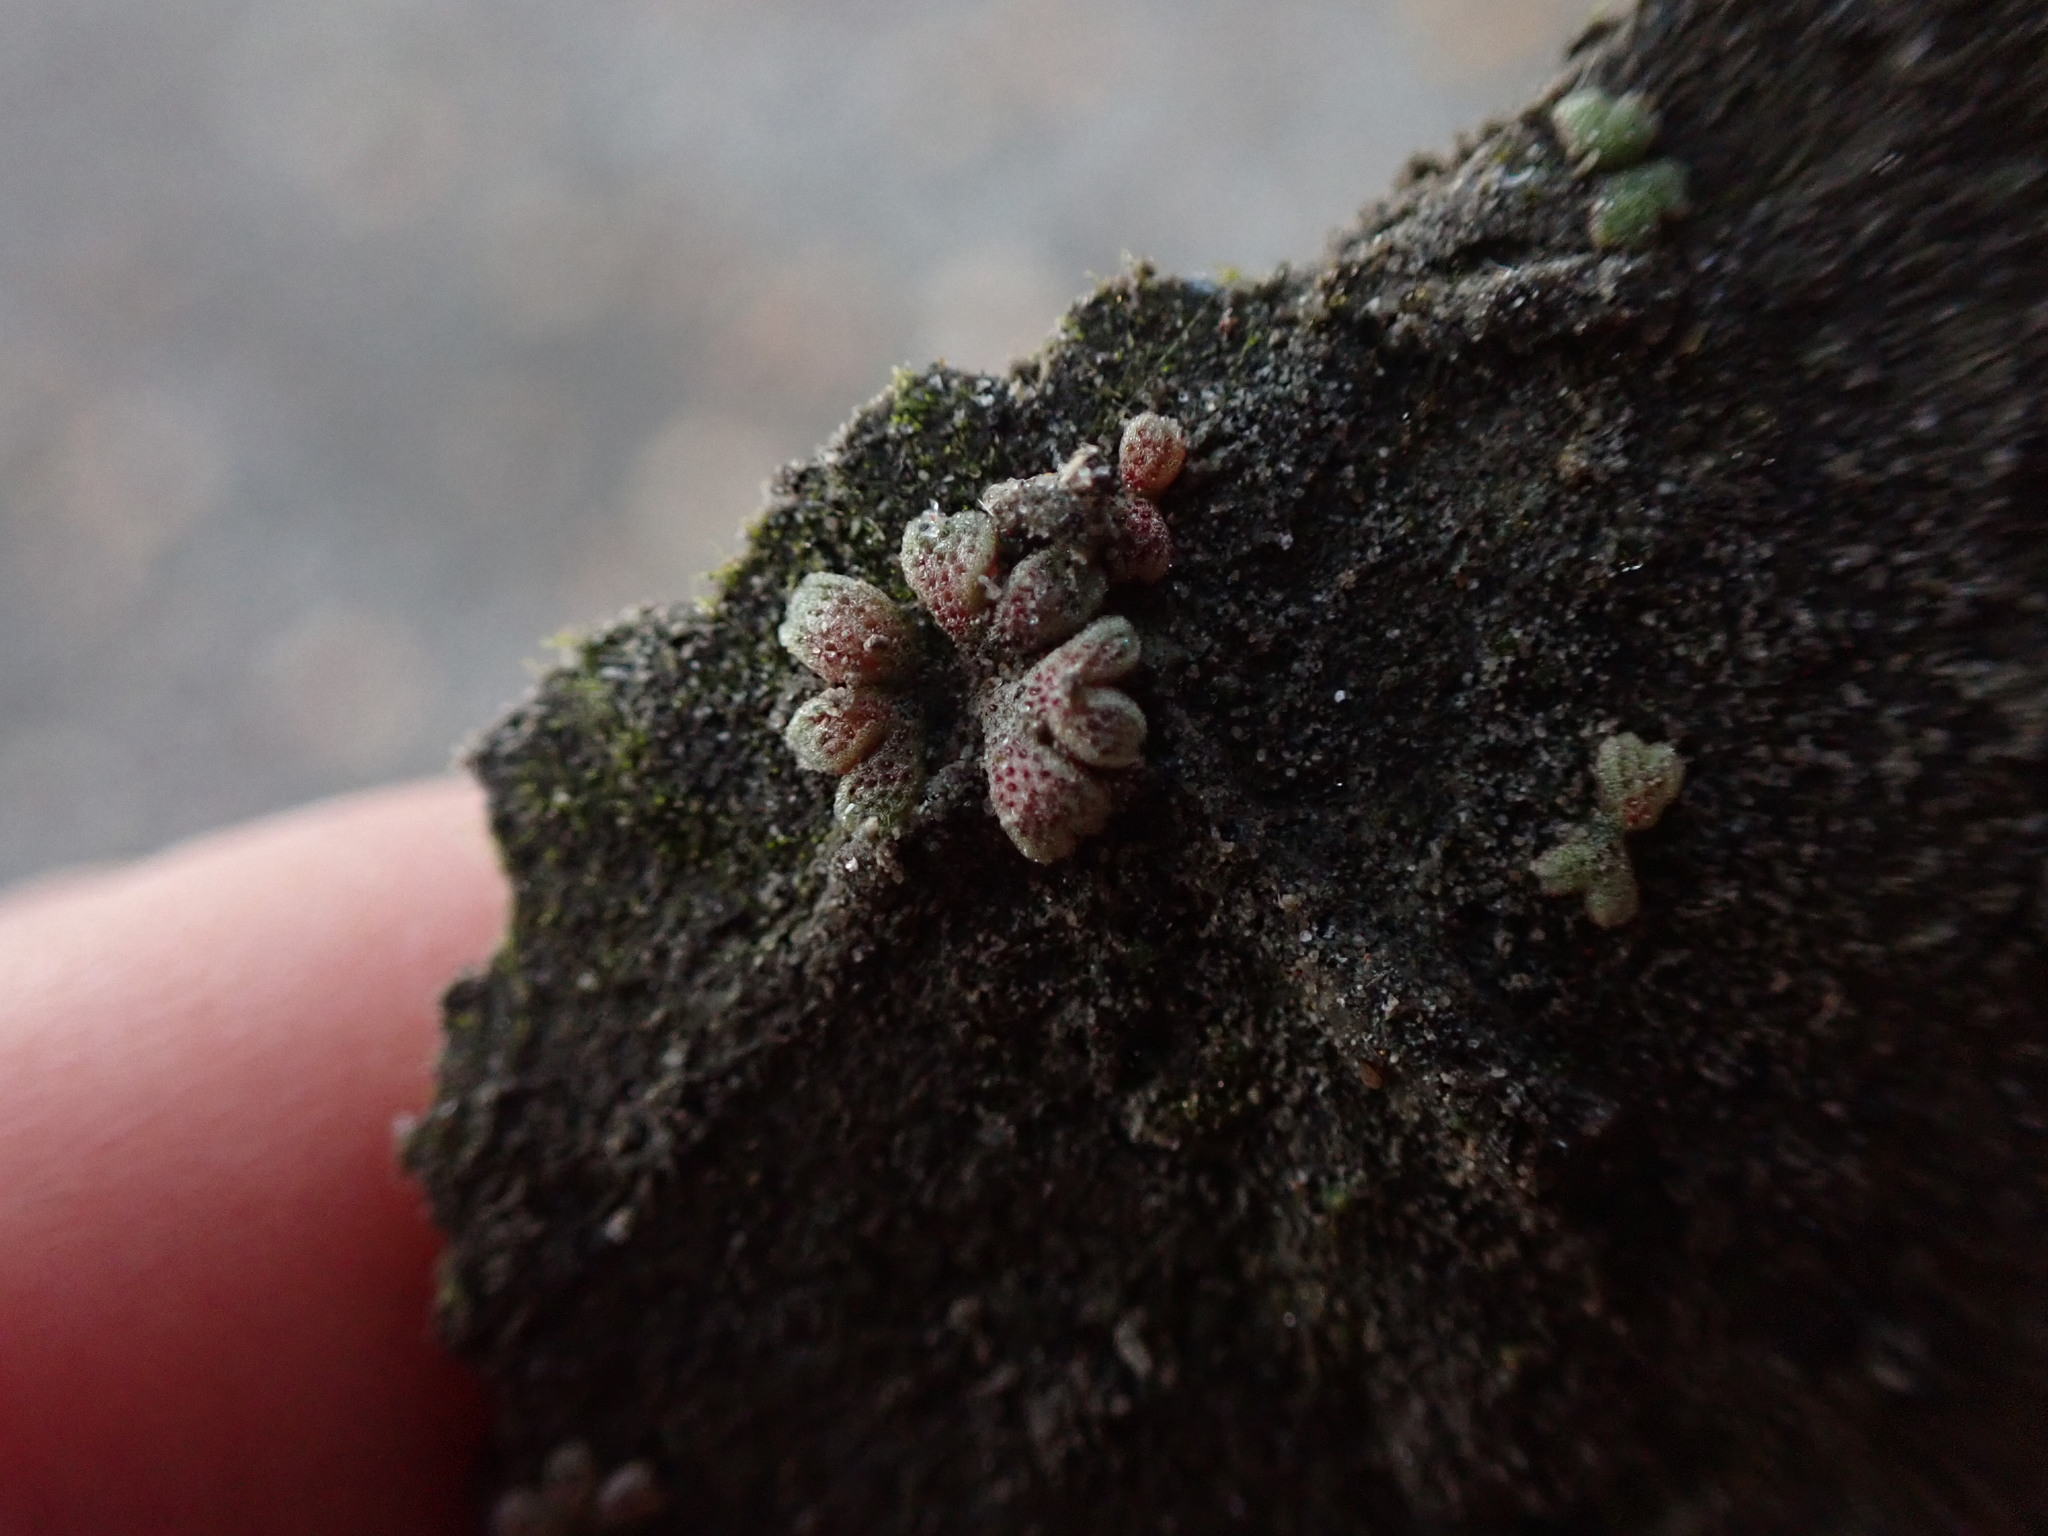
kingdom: Plantae
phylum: Marchantiophyta
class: Marchantiopsida
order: Marchantiales
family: Ricciaceae
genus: Riccia
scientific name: Riccia frostii
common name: Frost s crystalwort
